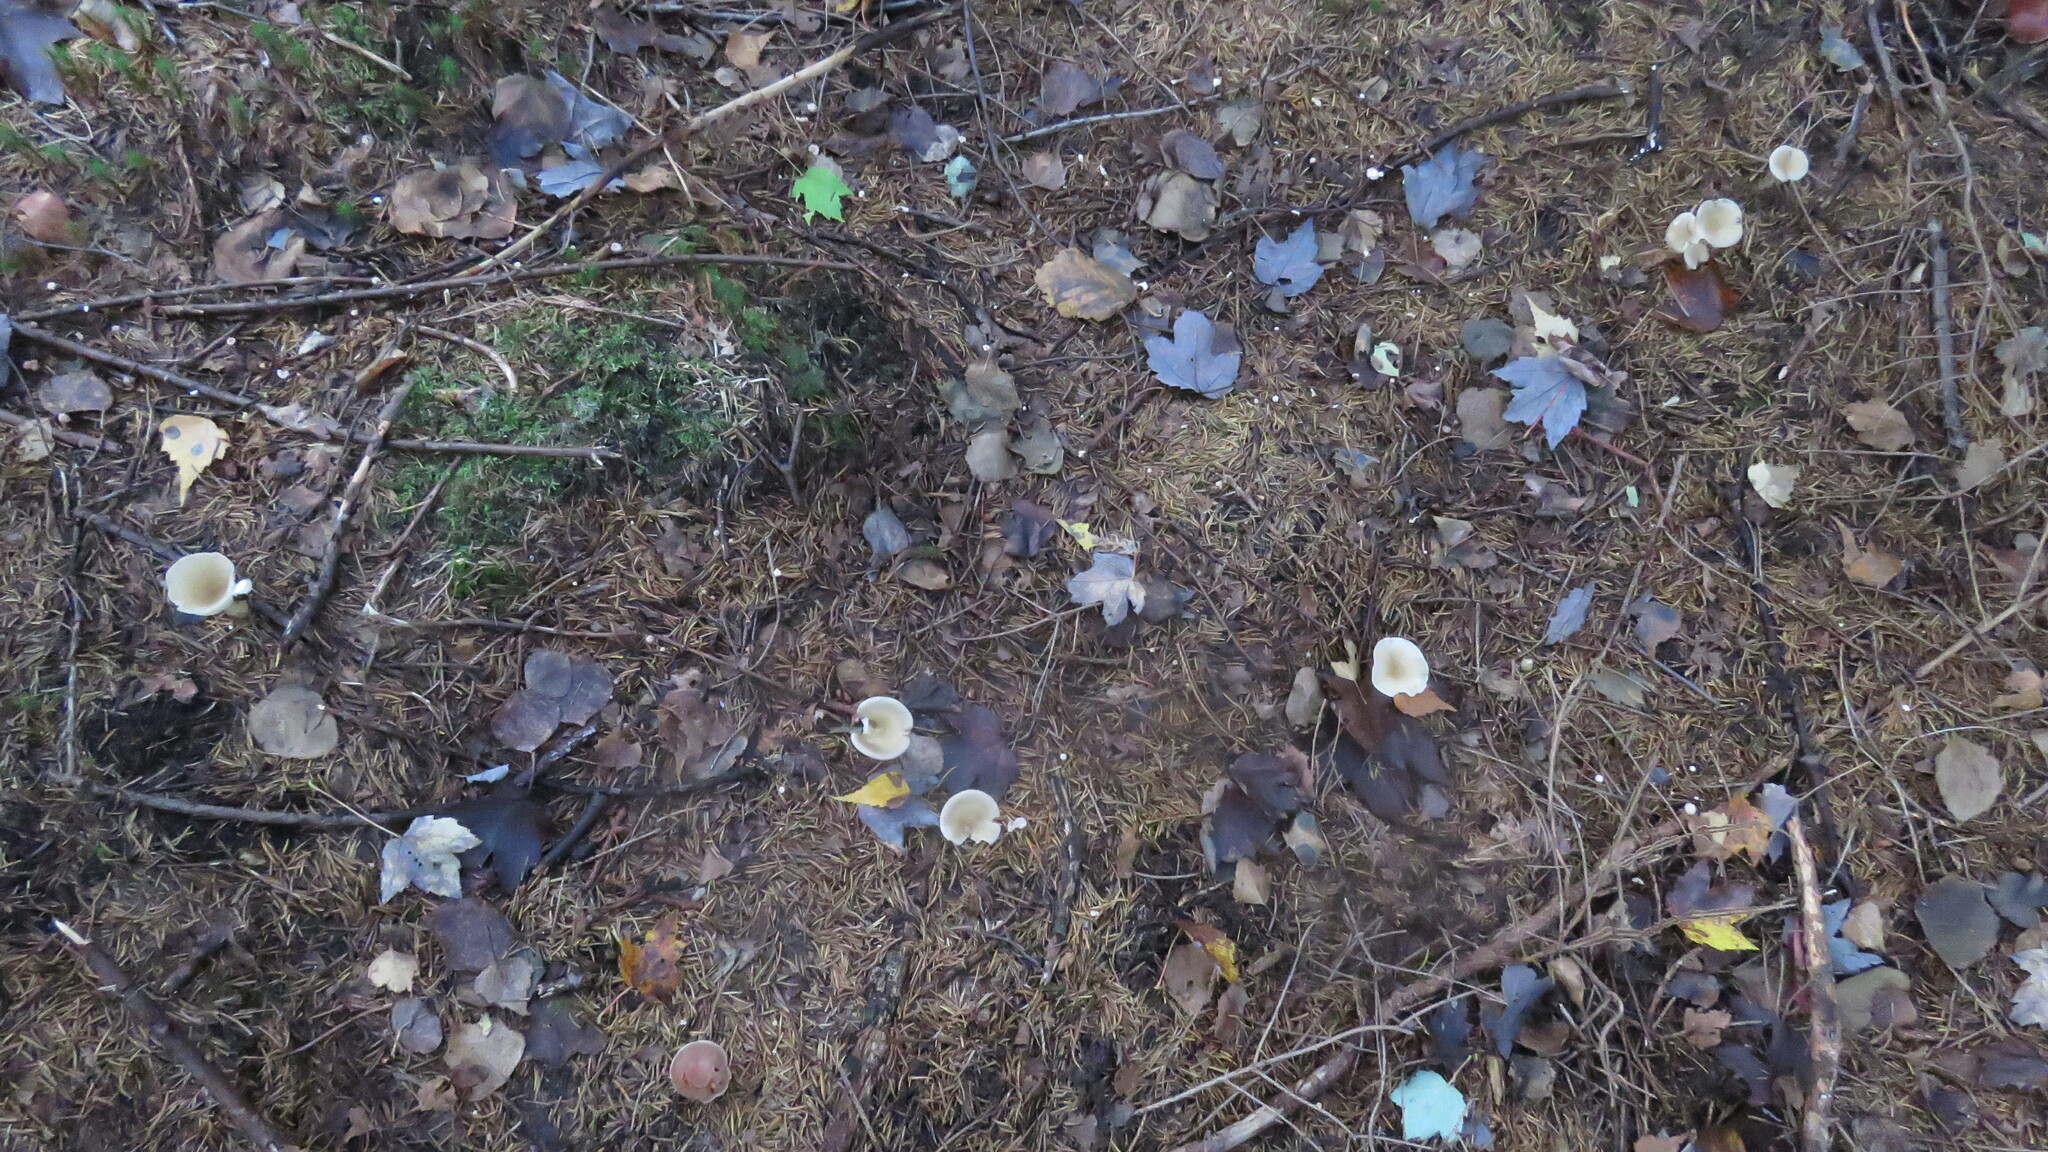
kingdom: Fungi
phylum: Basidiomycota
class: Agaricomycetes
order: Agaricales
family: Hygrophoraceae
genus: Ampulloclitocybe
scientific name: Ampulloclitocybe clavipes
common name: Club foot
